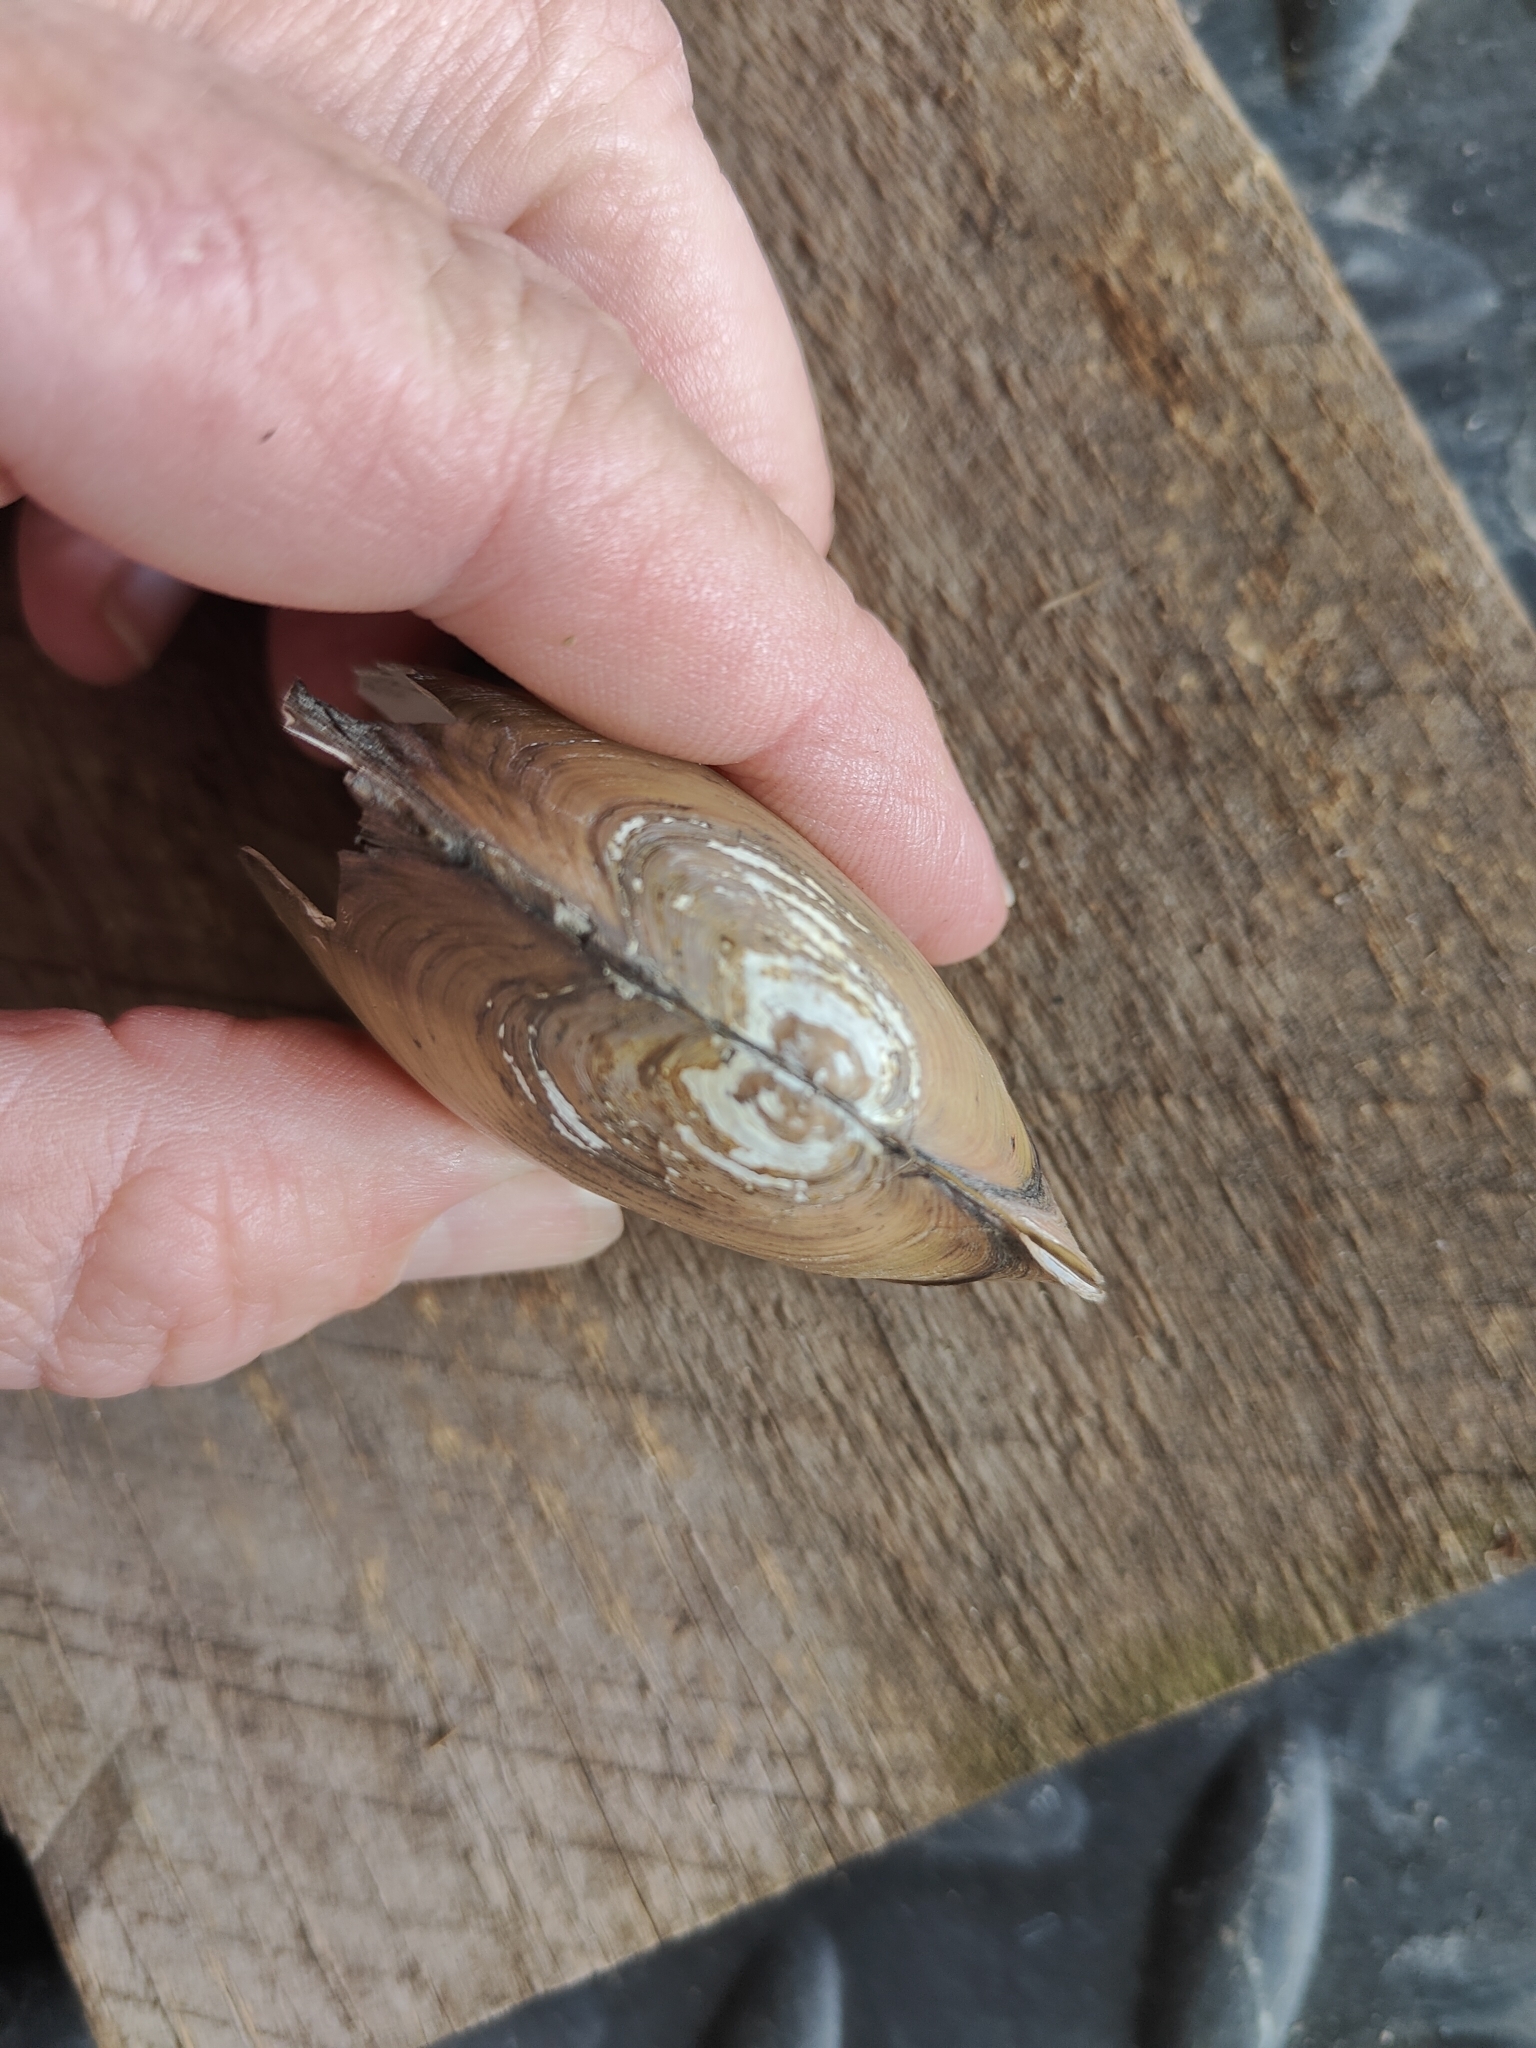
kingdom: Animalia
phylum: Mollusca
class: Bivalvia
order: Unionida
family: Unionidae
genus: Utterbackia
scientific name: Utterbackia imbecillis
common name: Paper pondshell
